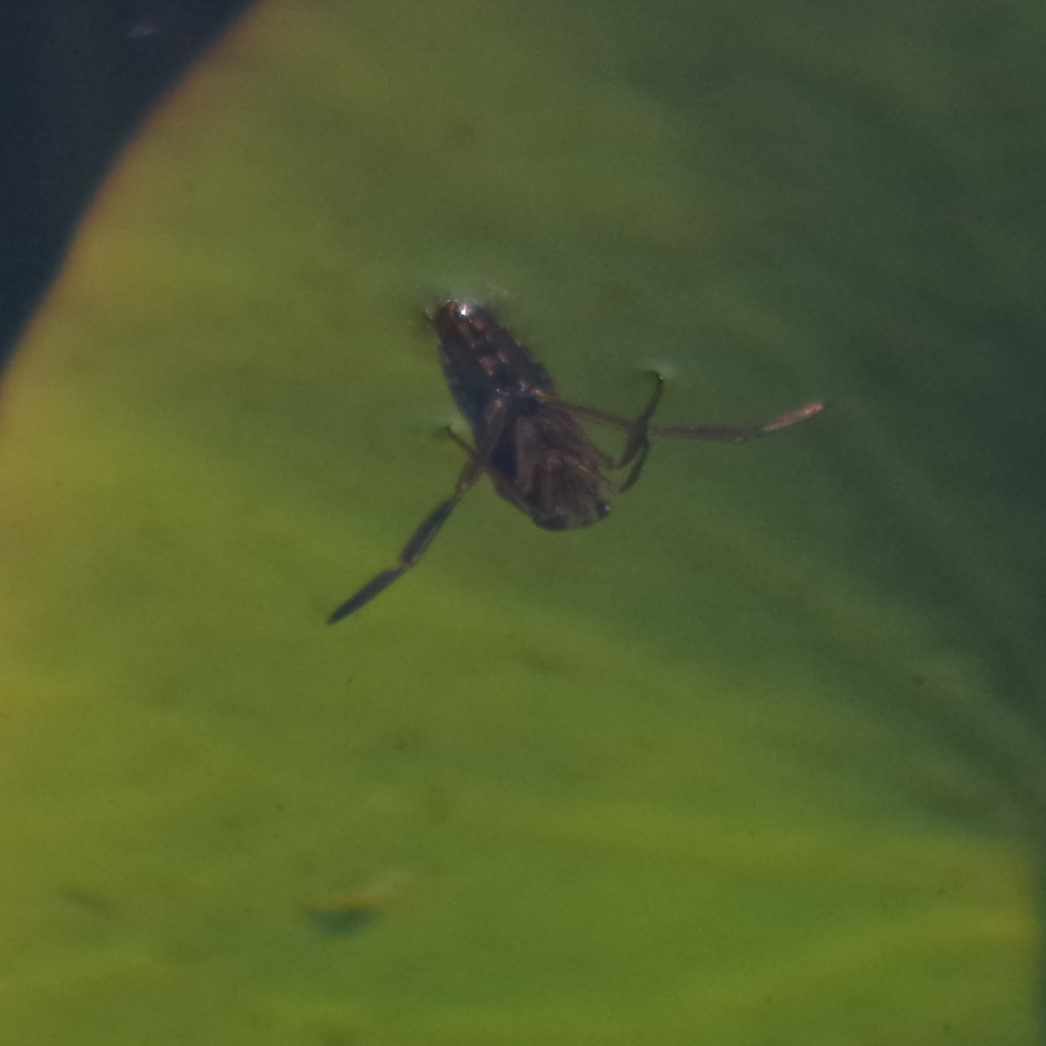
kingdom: Animalia
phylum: Arthropoda
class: Insecta
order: Hemiptera
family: Notonectidae
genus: Notonecta
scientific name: Notonecta
